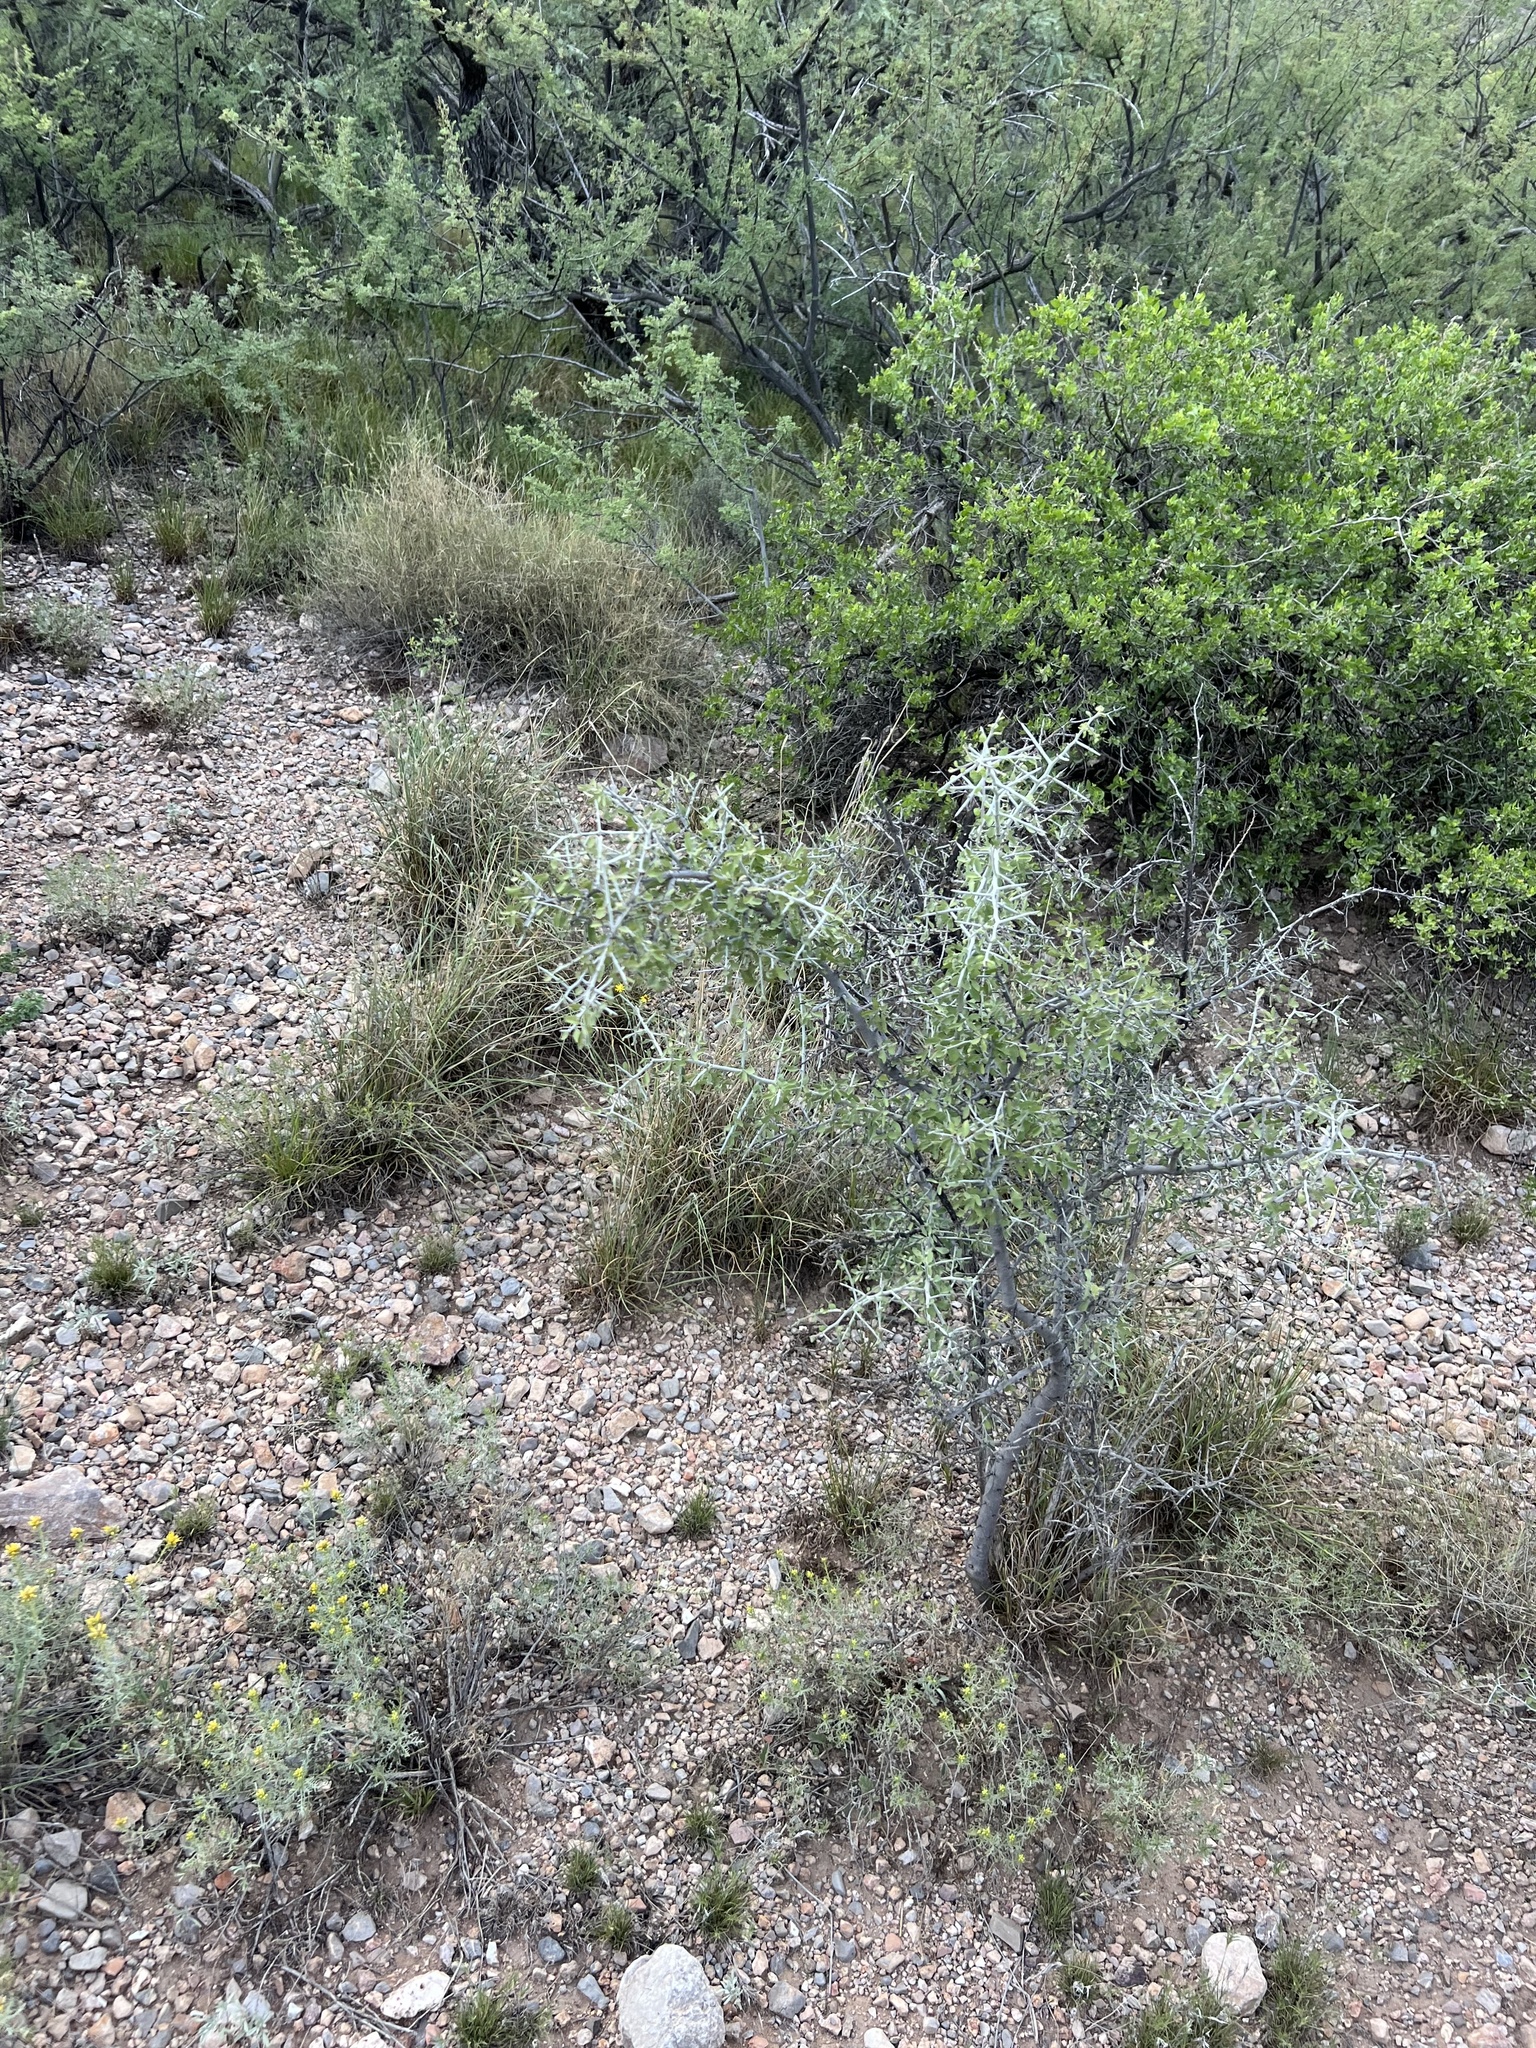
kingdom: Plantae
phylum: Tracheophyta
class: Magnoliopsida
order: Rosales
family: Rhamnaceae
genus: Sarcomphalus
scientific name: Sarcomphalus obtusifolius
